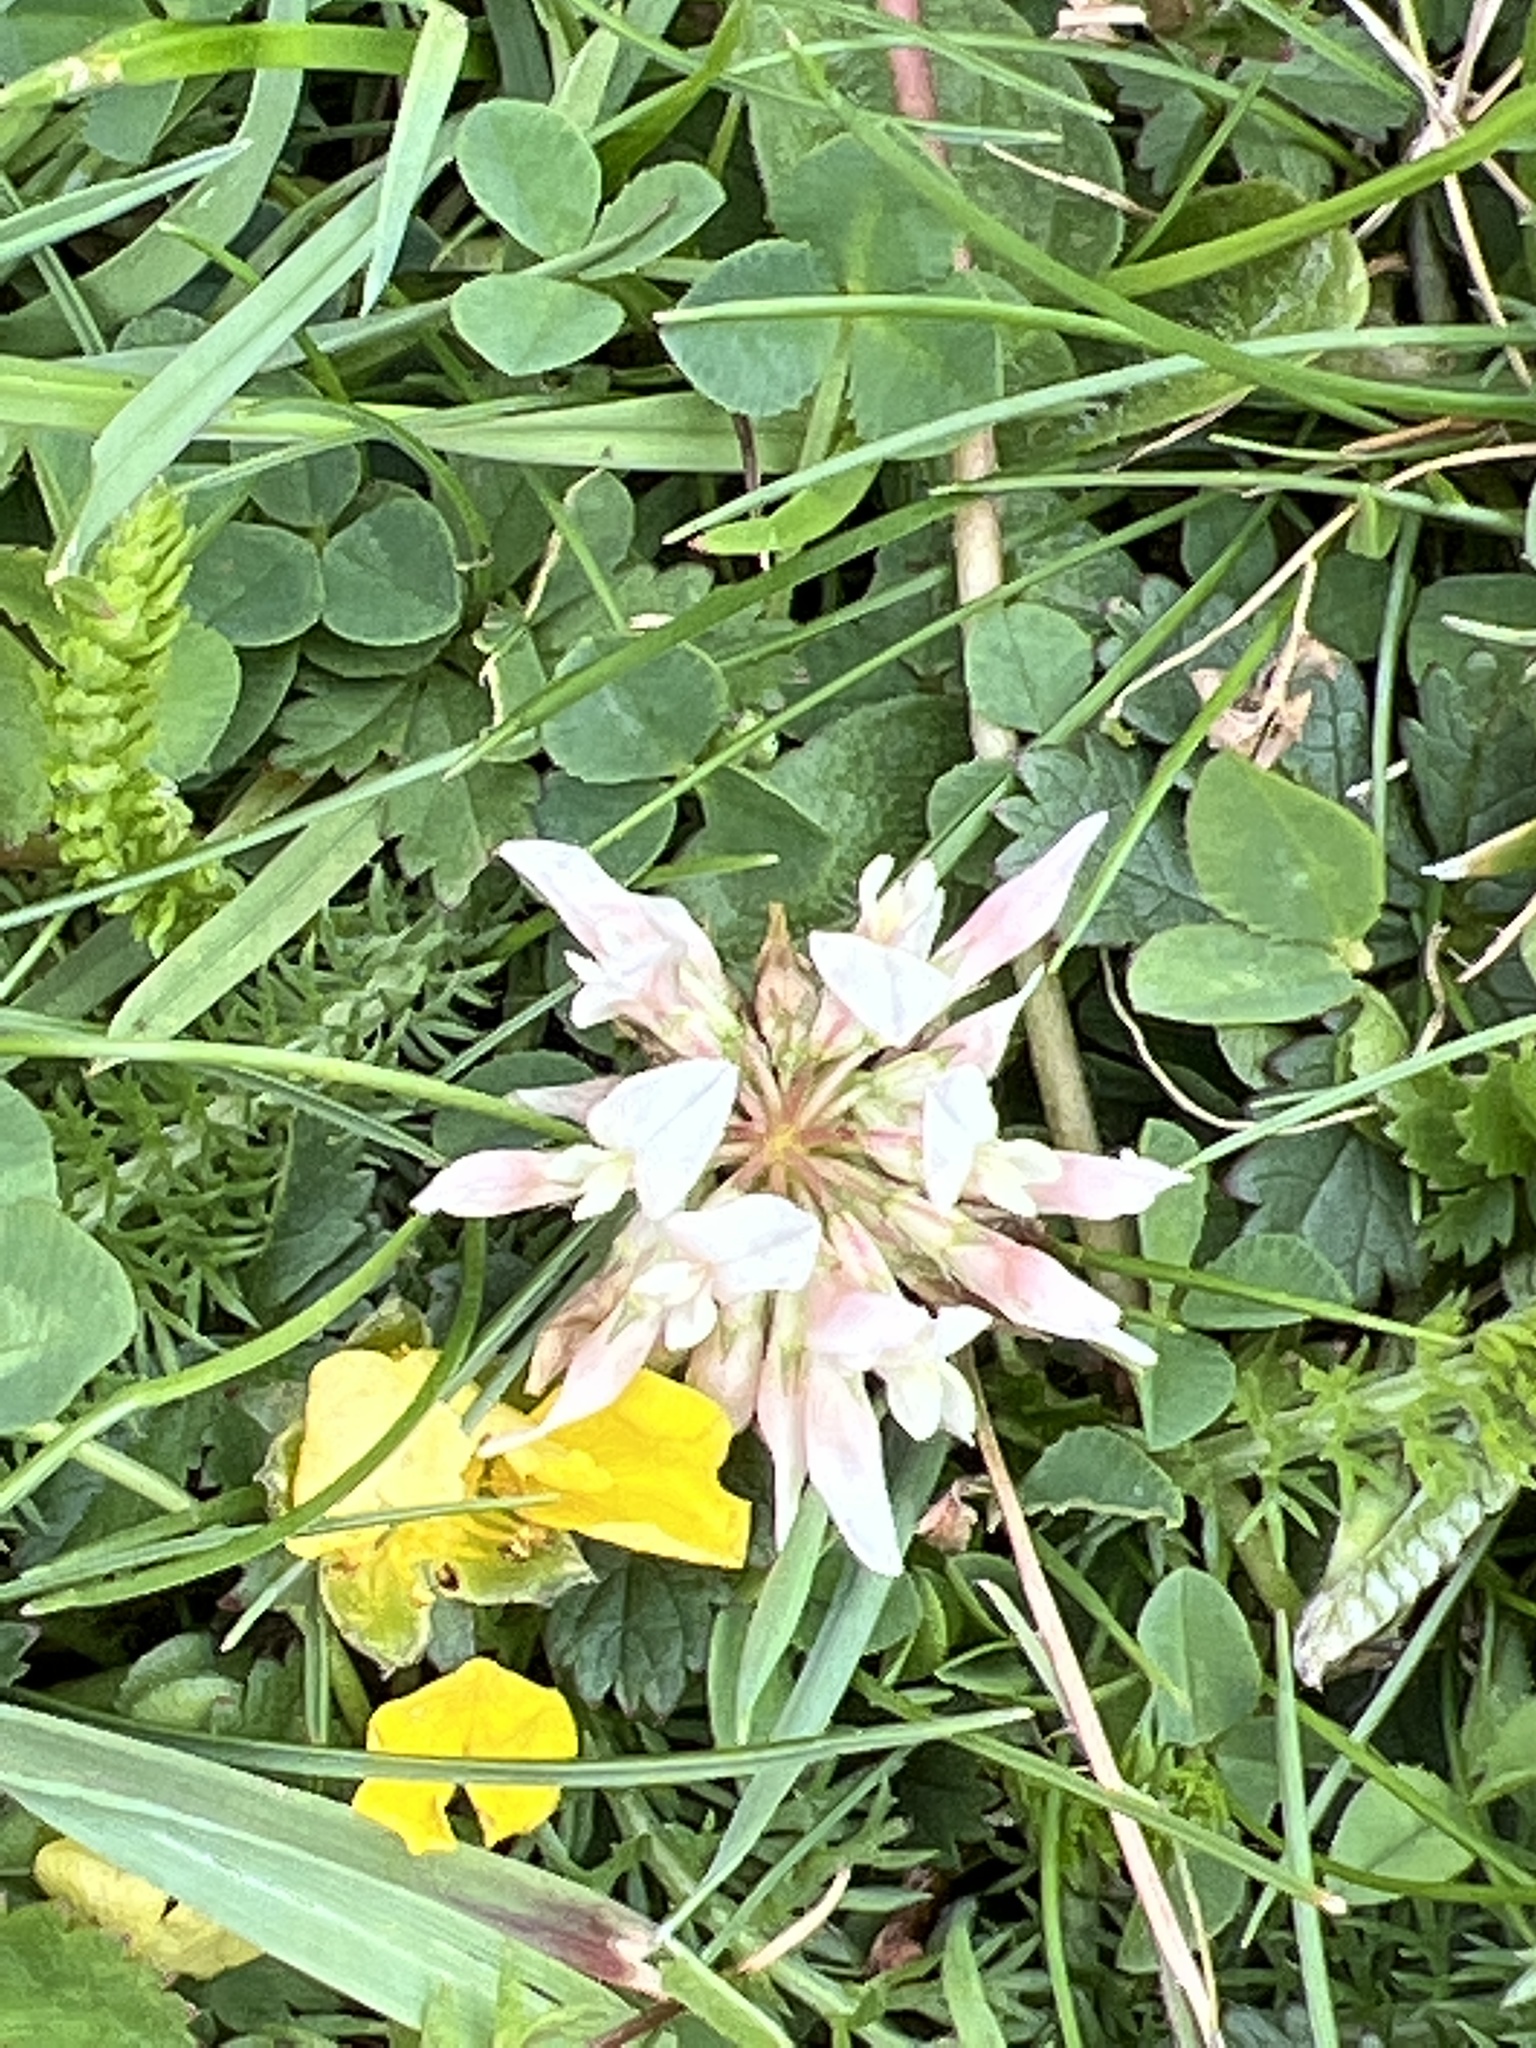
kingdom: Plantae
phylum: Tracheophyta
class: Magnoliopsida
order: Fabales
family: Fabaceae
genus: Trifolium
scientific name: Trifolium repens
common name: White clover
